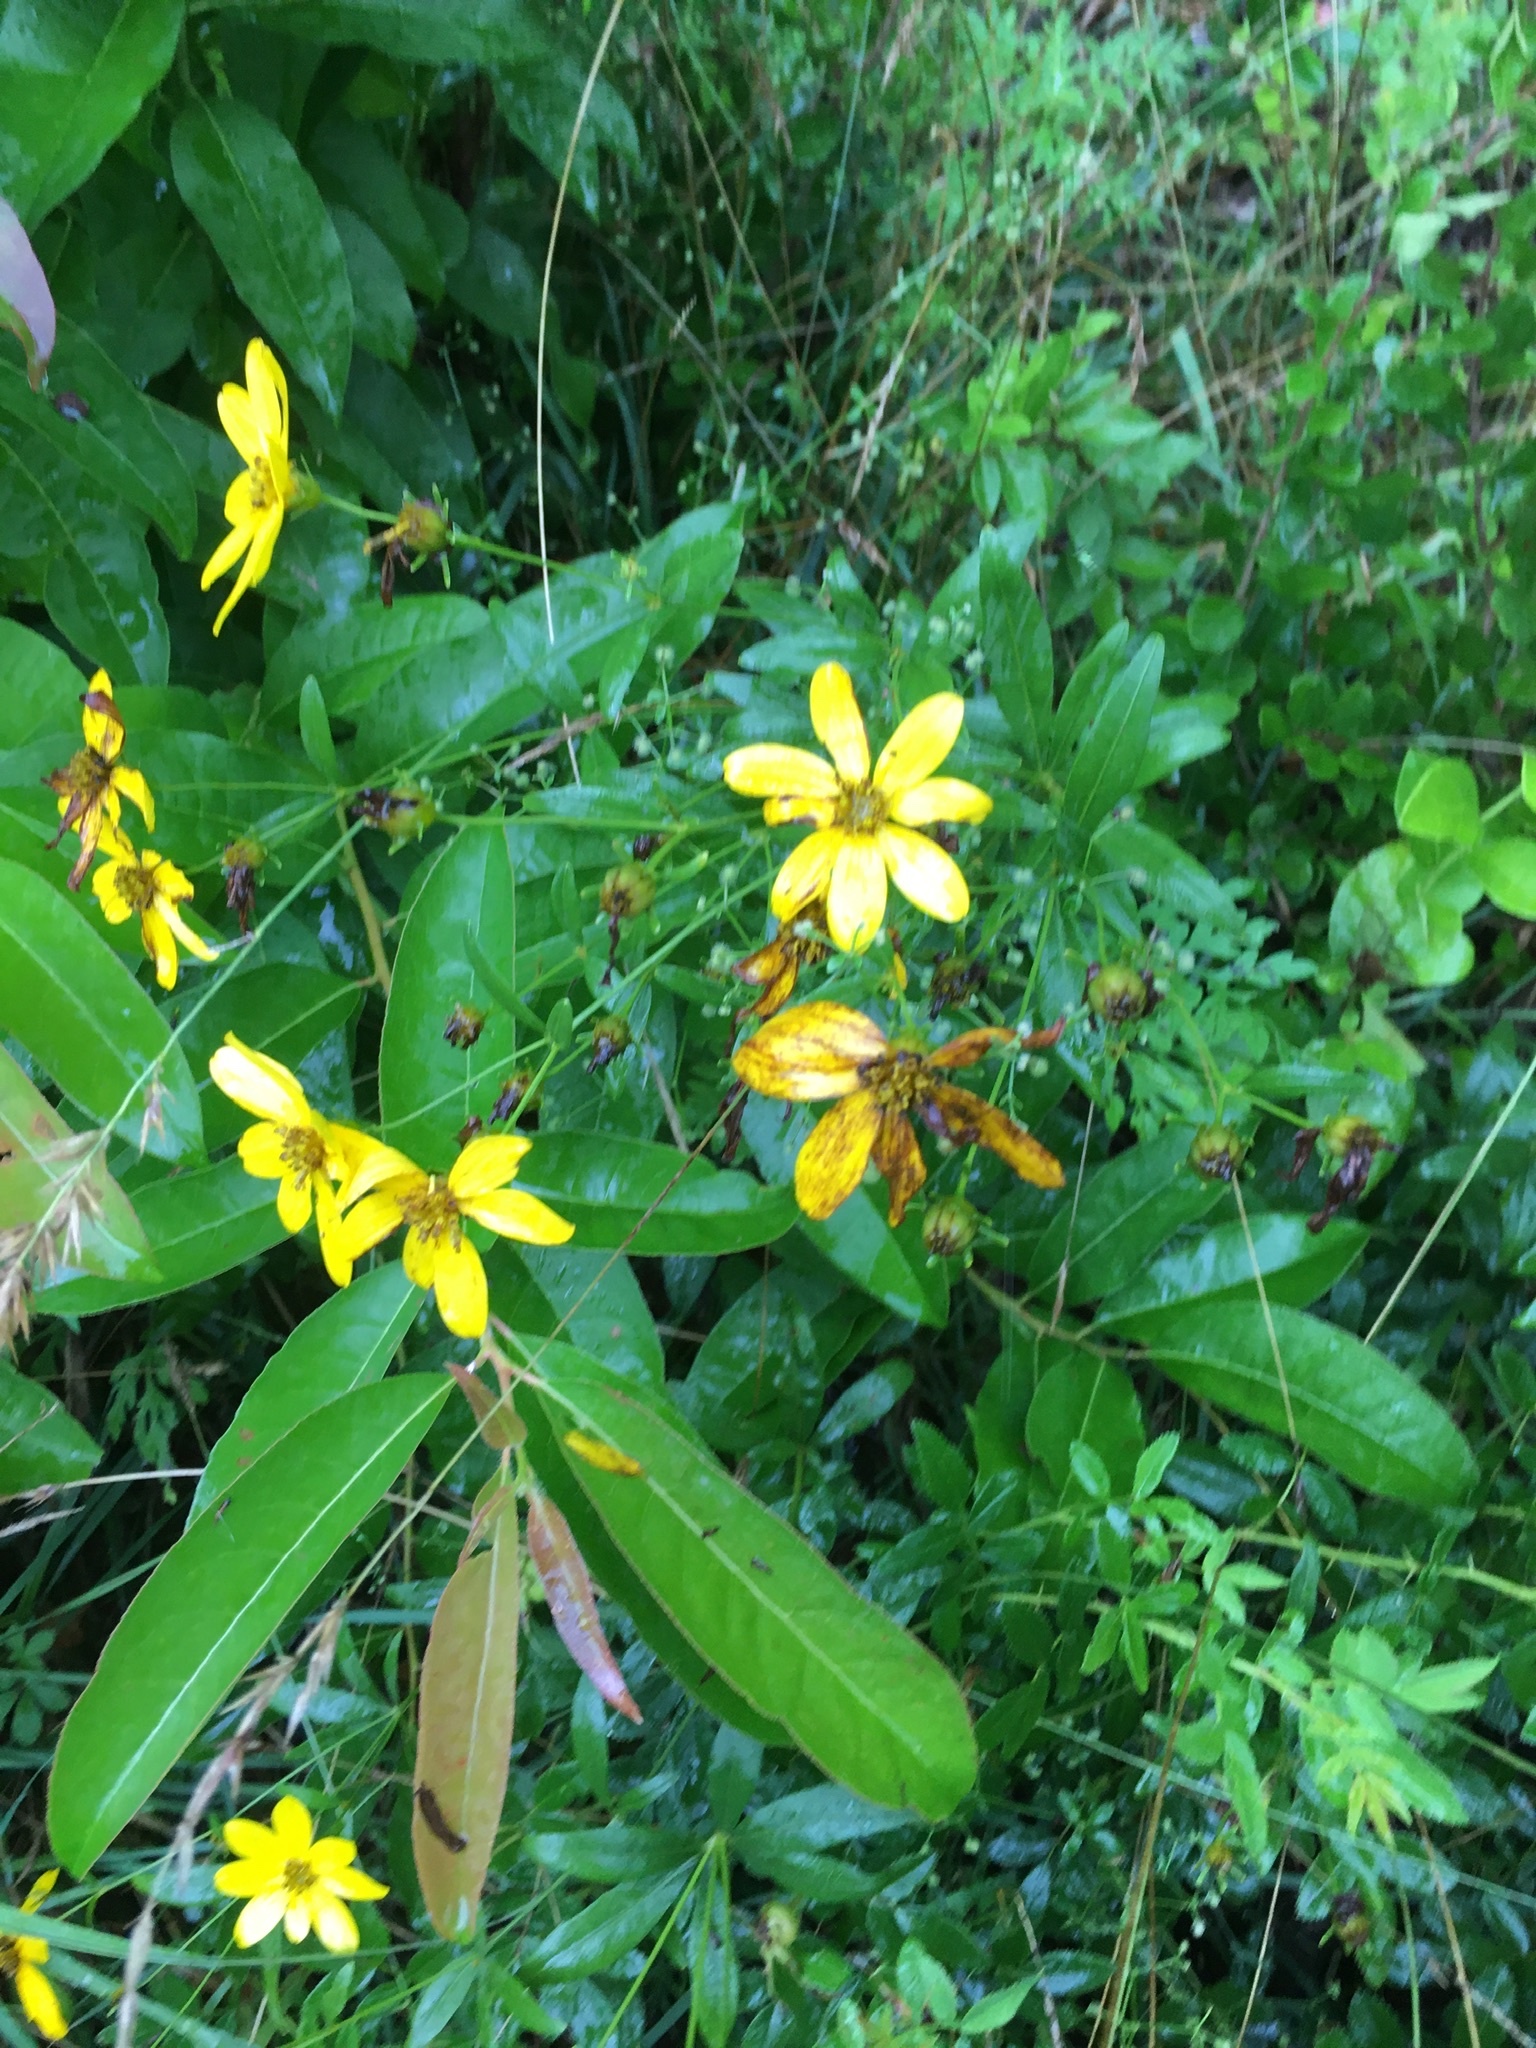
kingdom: Plantae
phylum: Tracheophyta
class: Magnoliopsida
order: Asterales
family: Asteraceae
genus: Coreopsis
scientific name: Coreopsis major
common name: Forest tickseed
